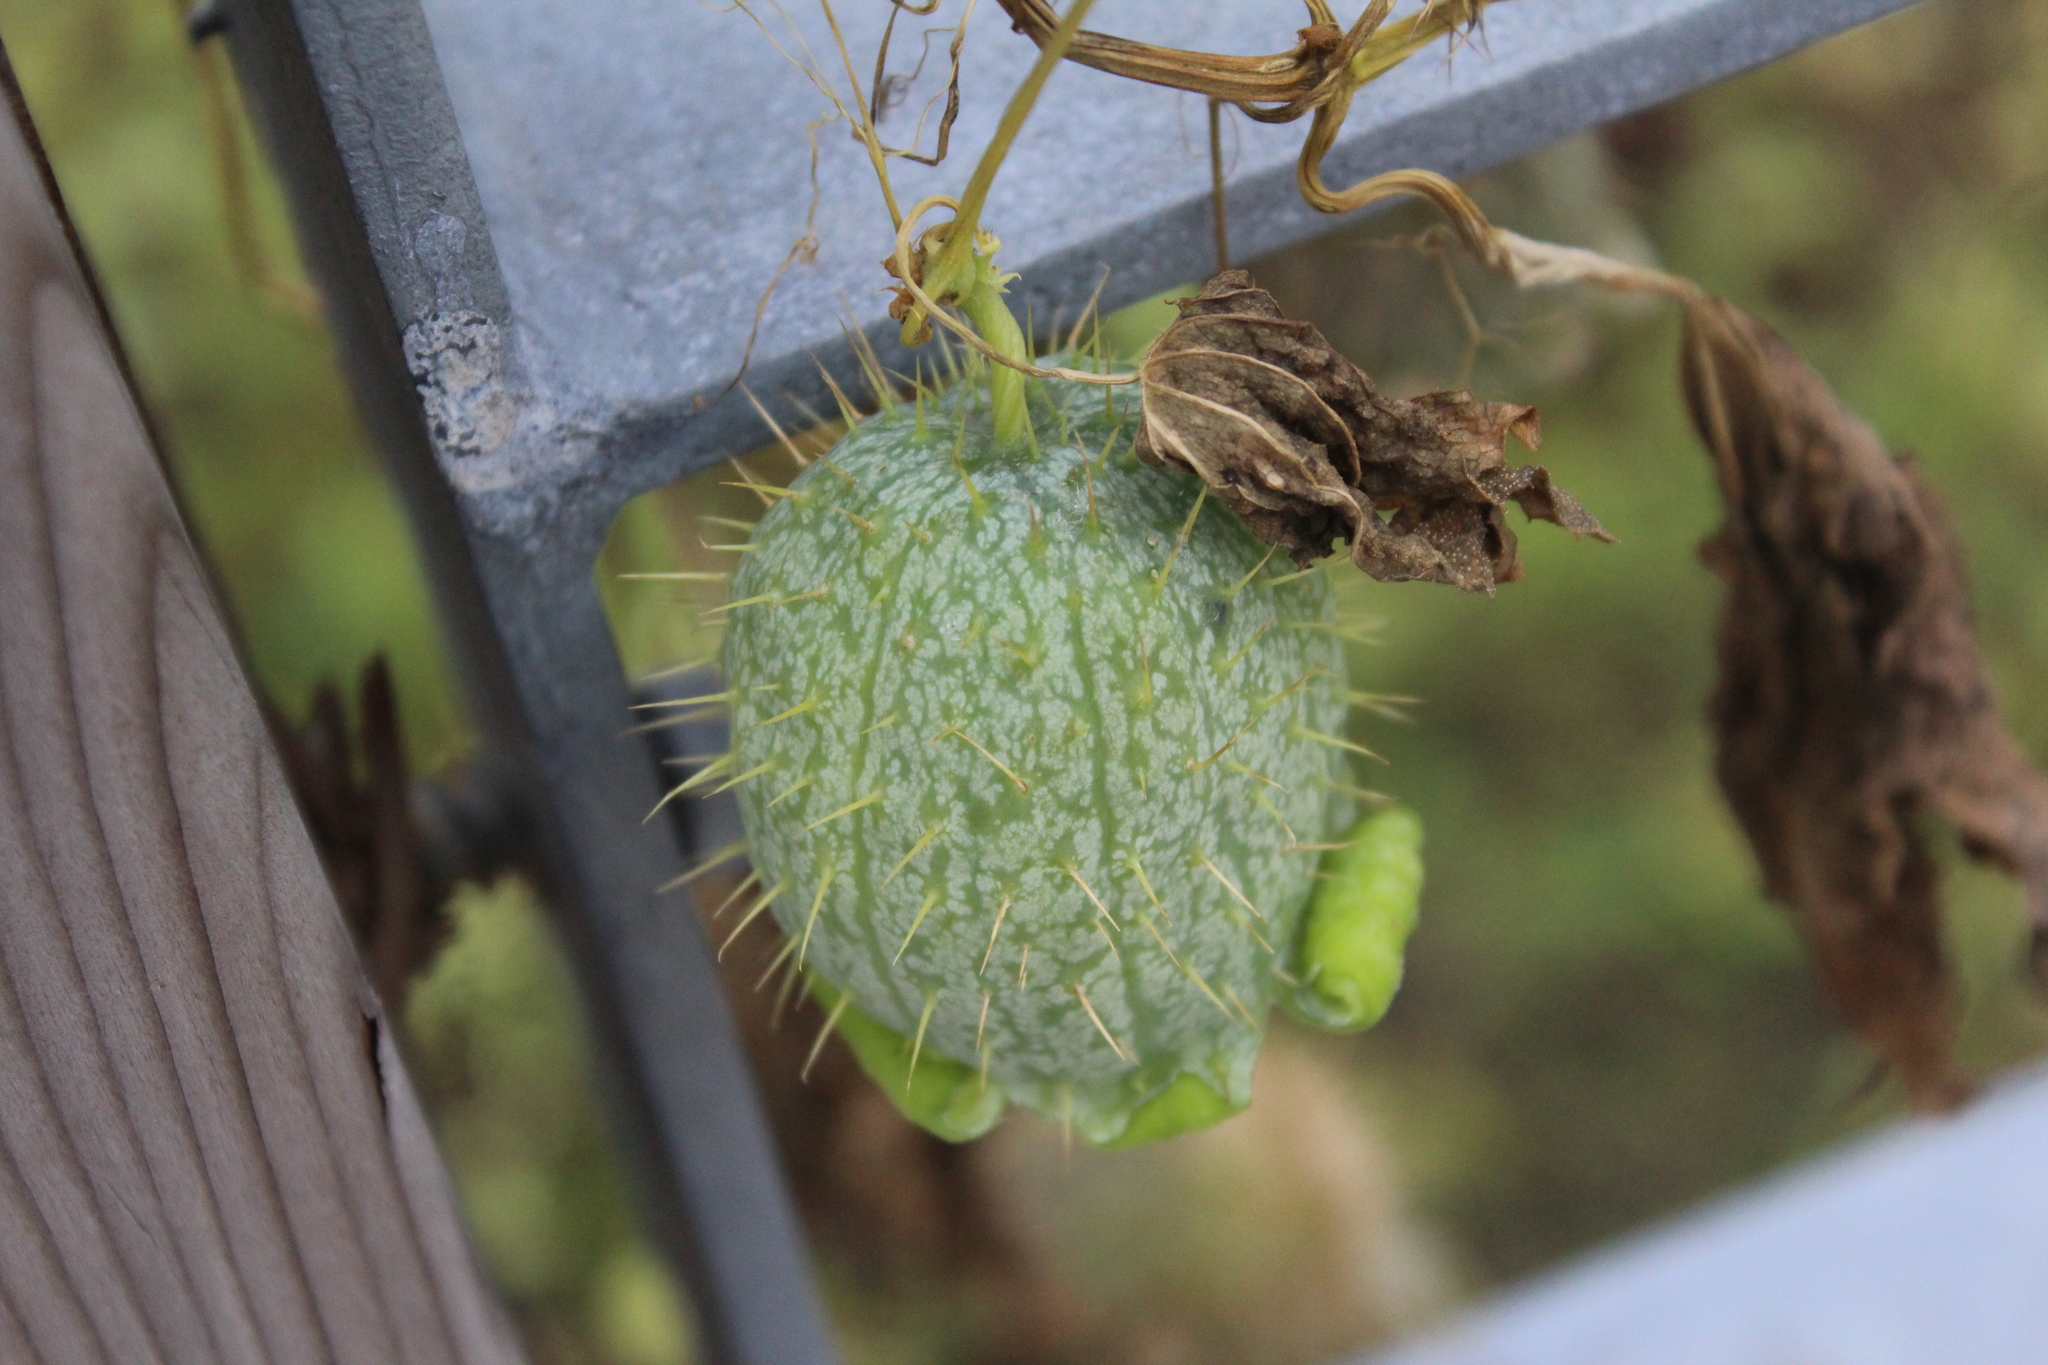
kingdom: Plantae
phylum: Tracheophyta
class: Magnoliopsida
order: Cucurbitales
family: Cucurbitaceae
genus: Echinocystis
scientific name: Echinocystis lobata
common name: Wild cucumber
